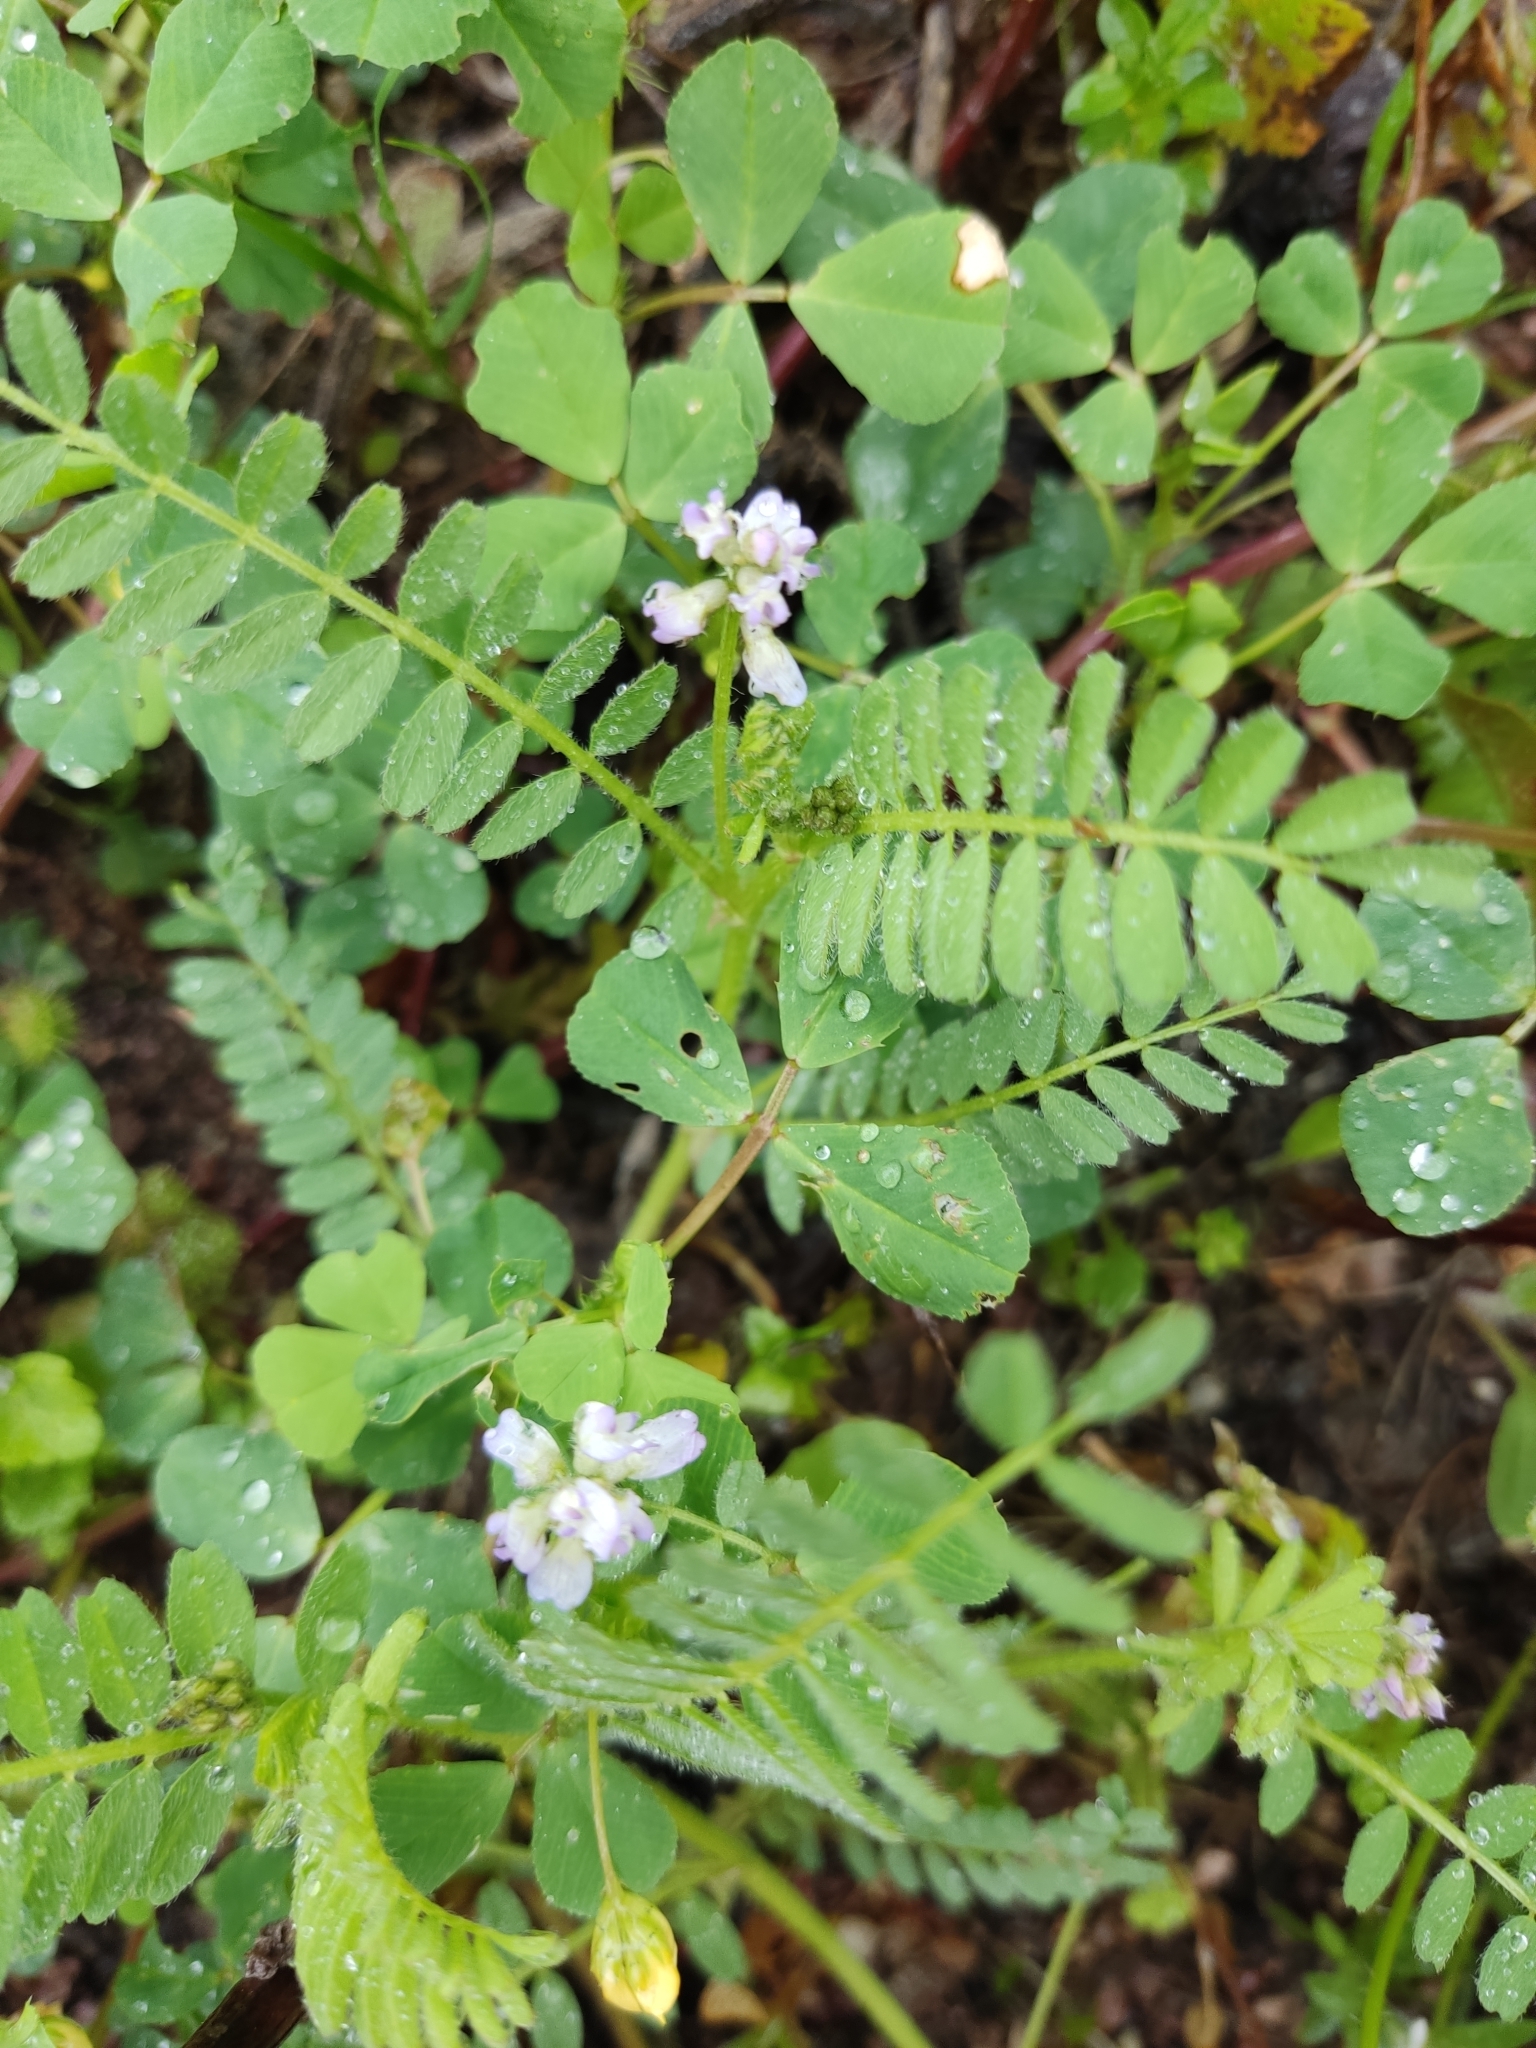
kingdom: Plantae
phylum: Tracheophyta
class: Magnoliopsida
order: Fabales
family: Fabaceae
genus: Biserrula
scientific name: Biserrula pelecinus
